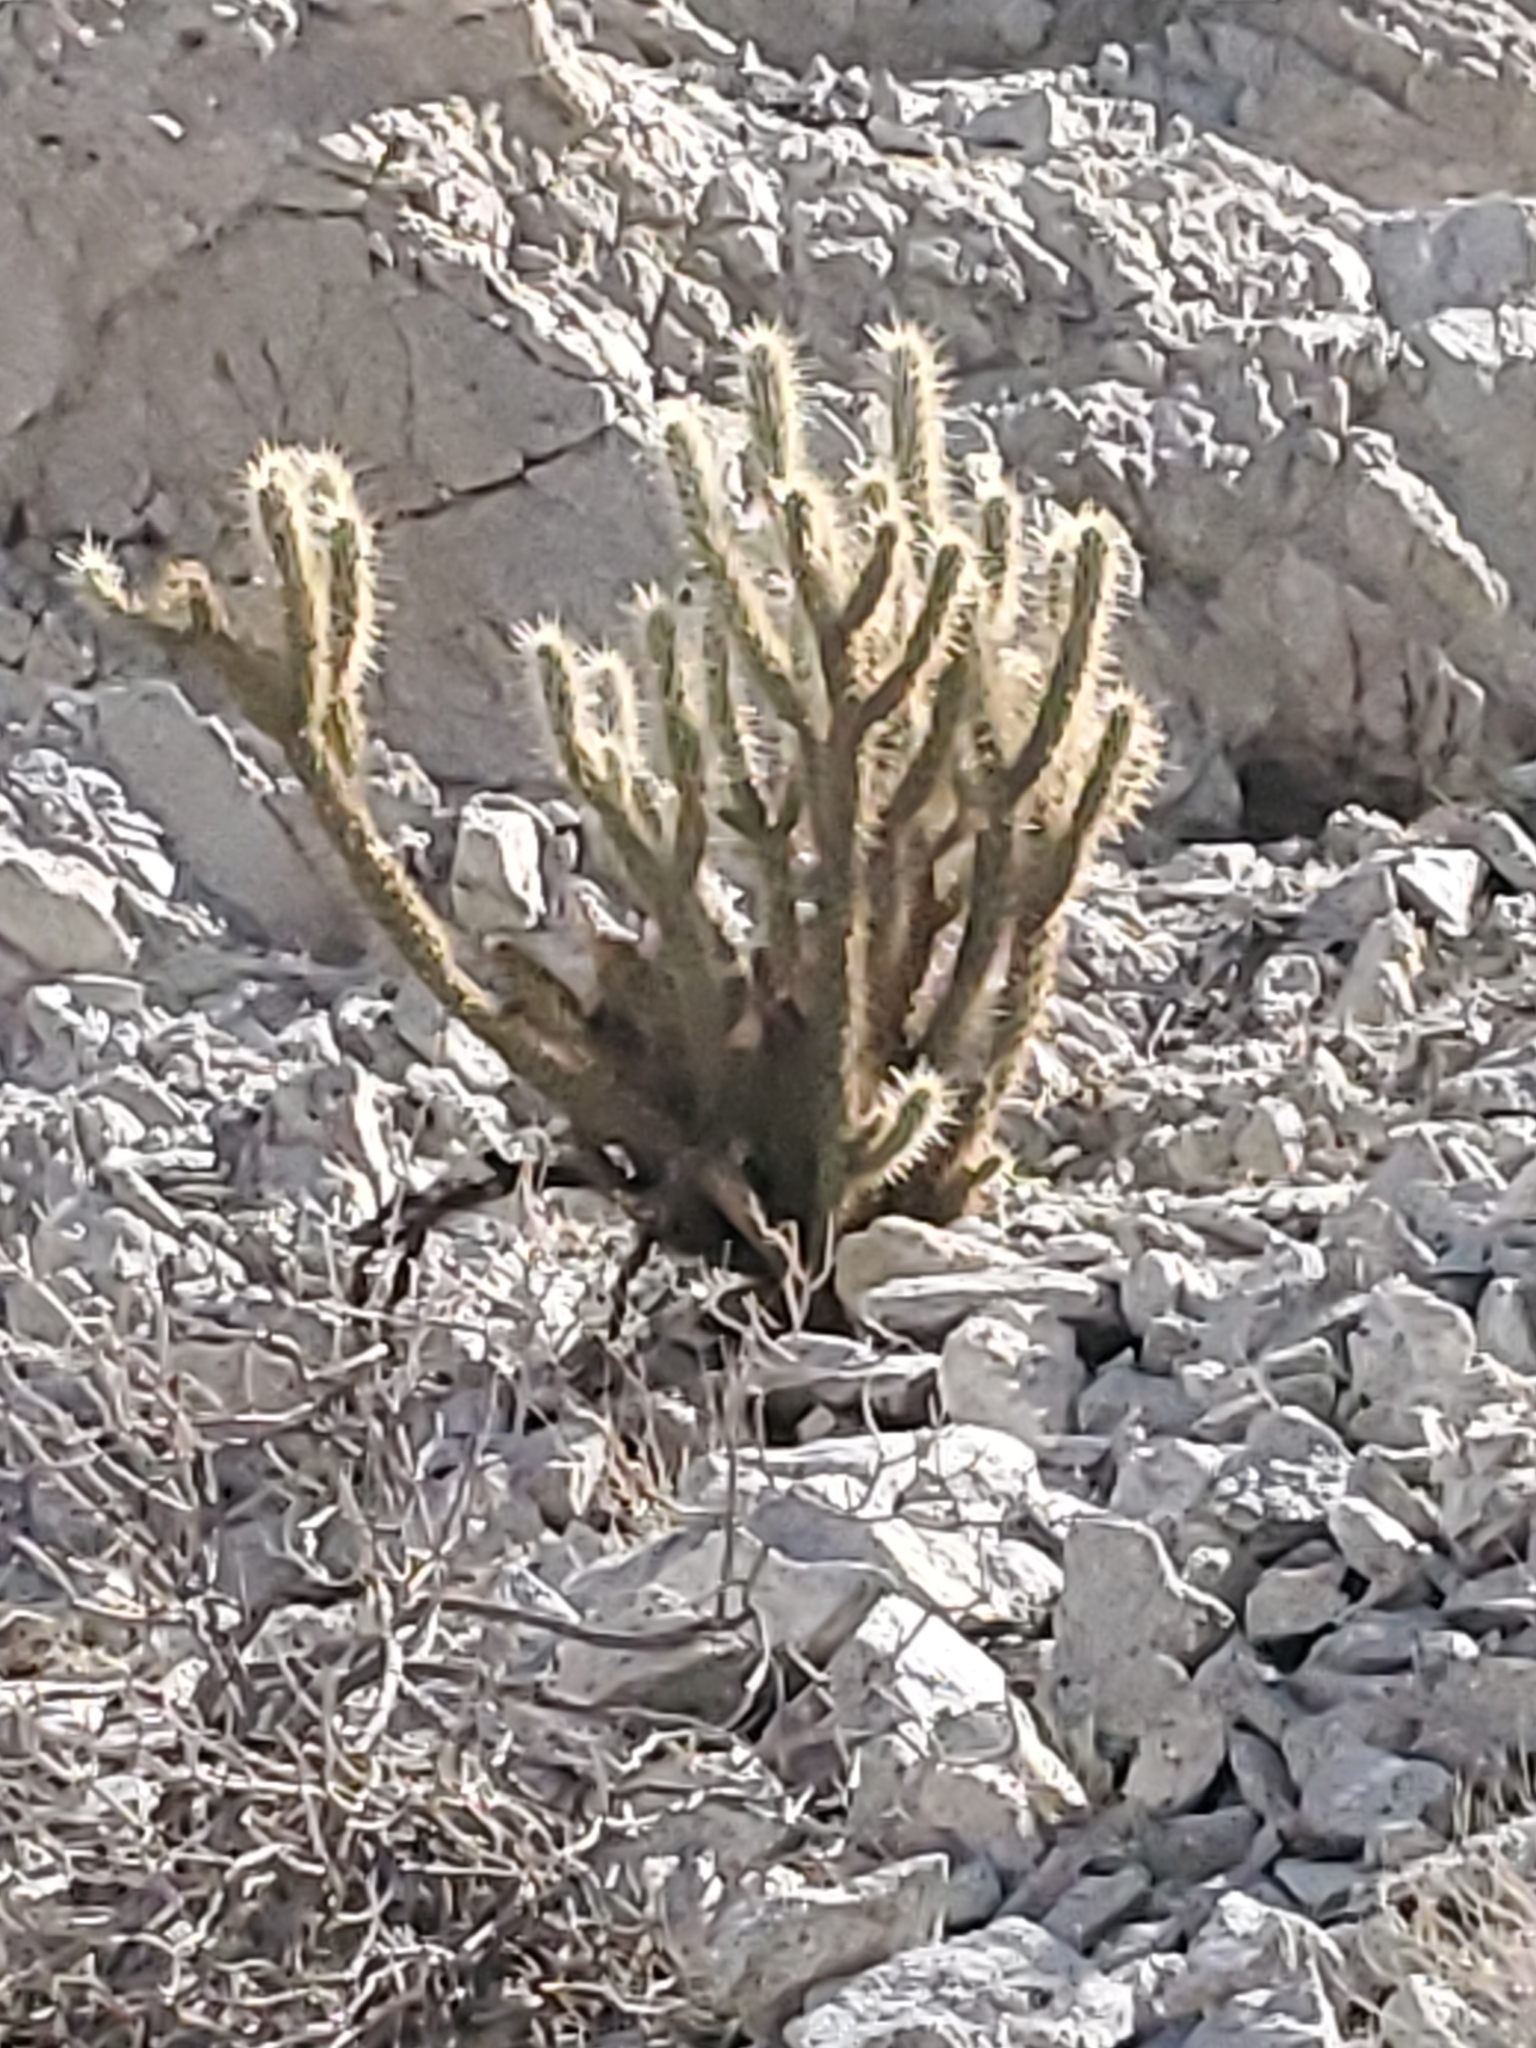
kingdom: Plantae
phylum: Tracheophyta
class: Magnoliopsida
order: Caryophyllales
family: Cactaceae
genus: Cylindropuntia
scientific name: Cylindropuntia ganderi
